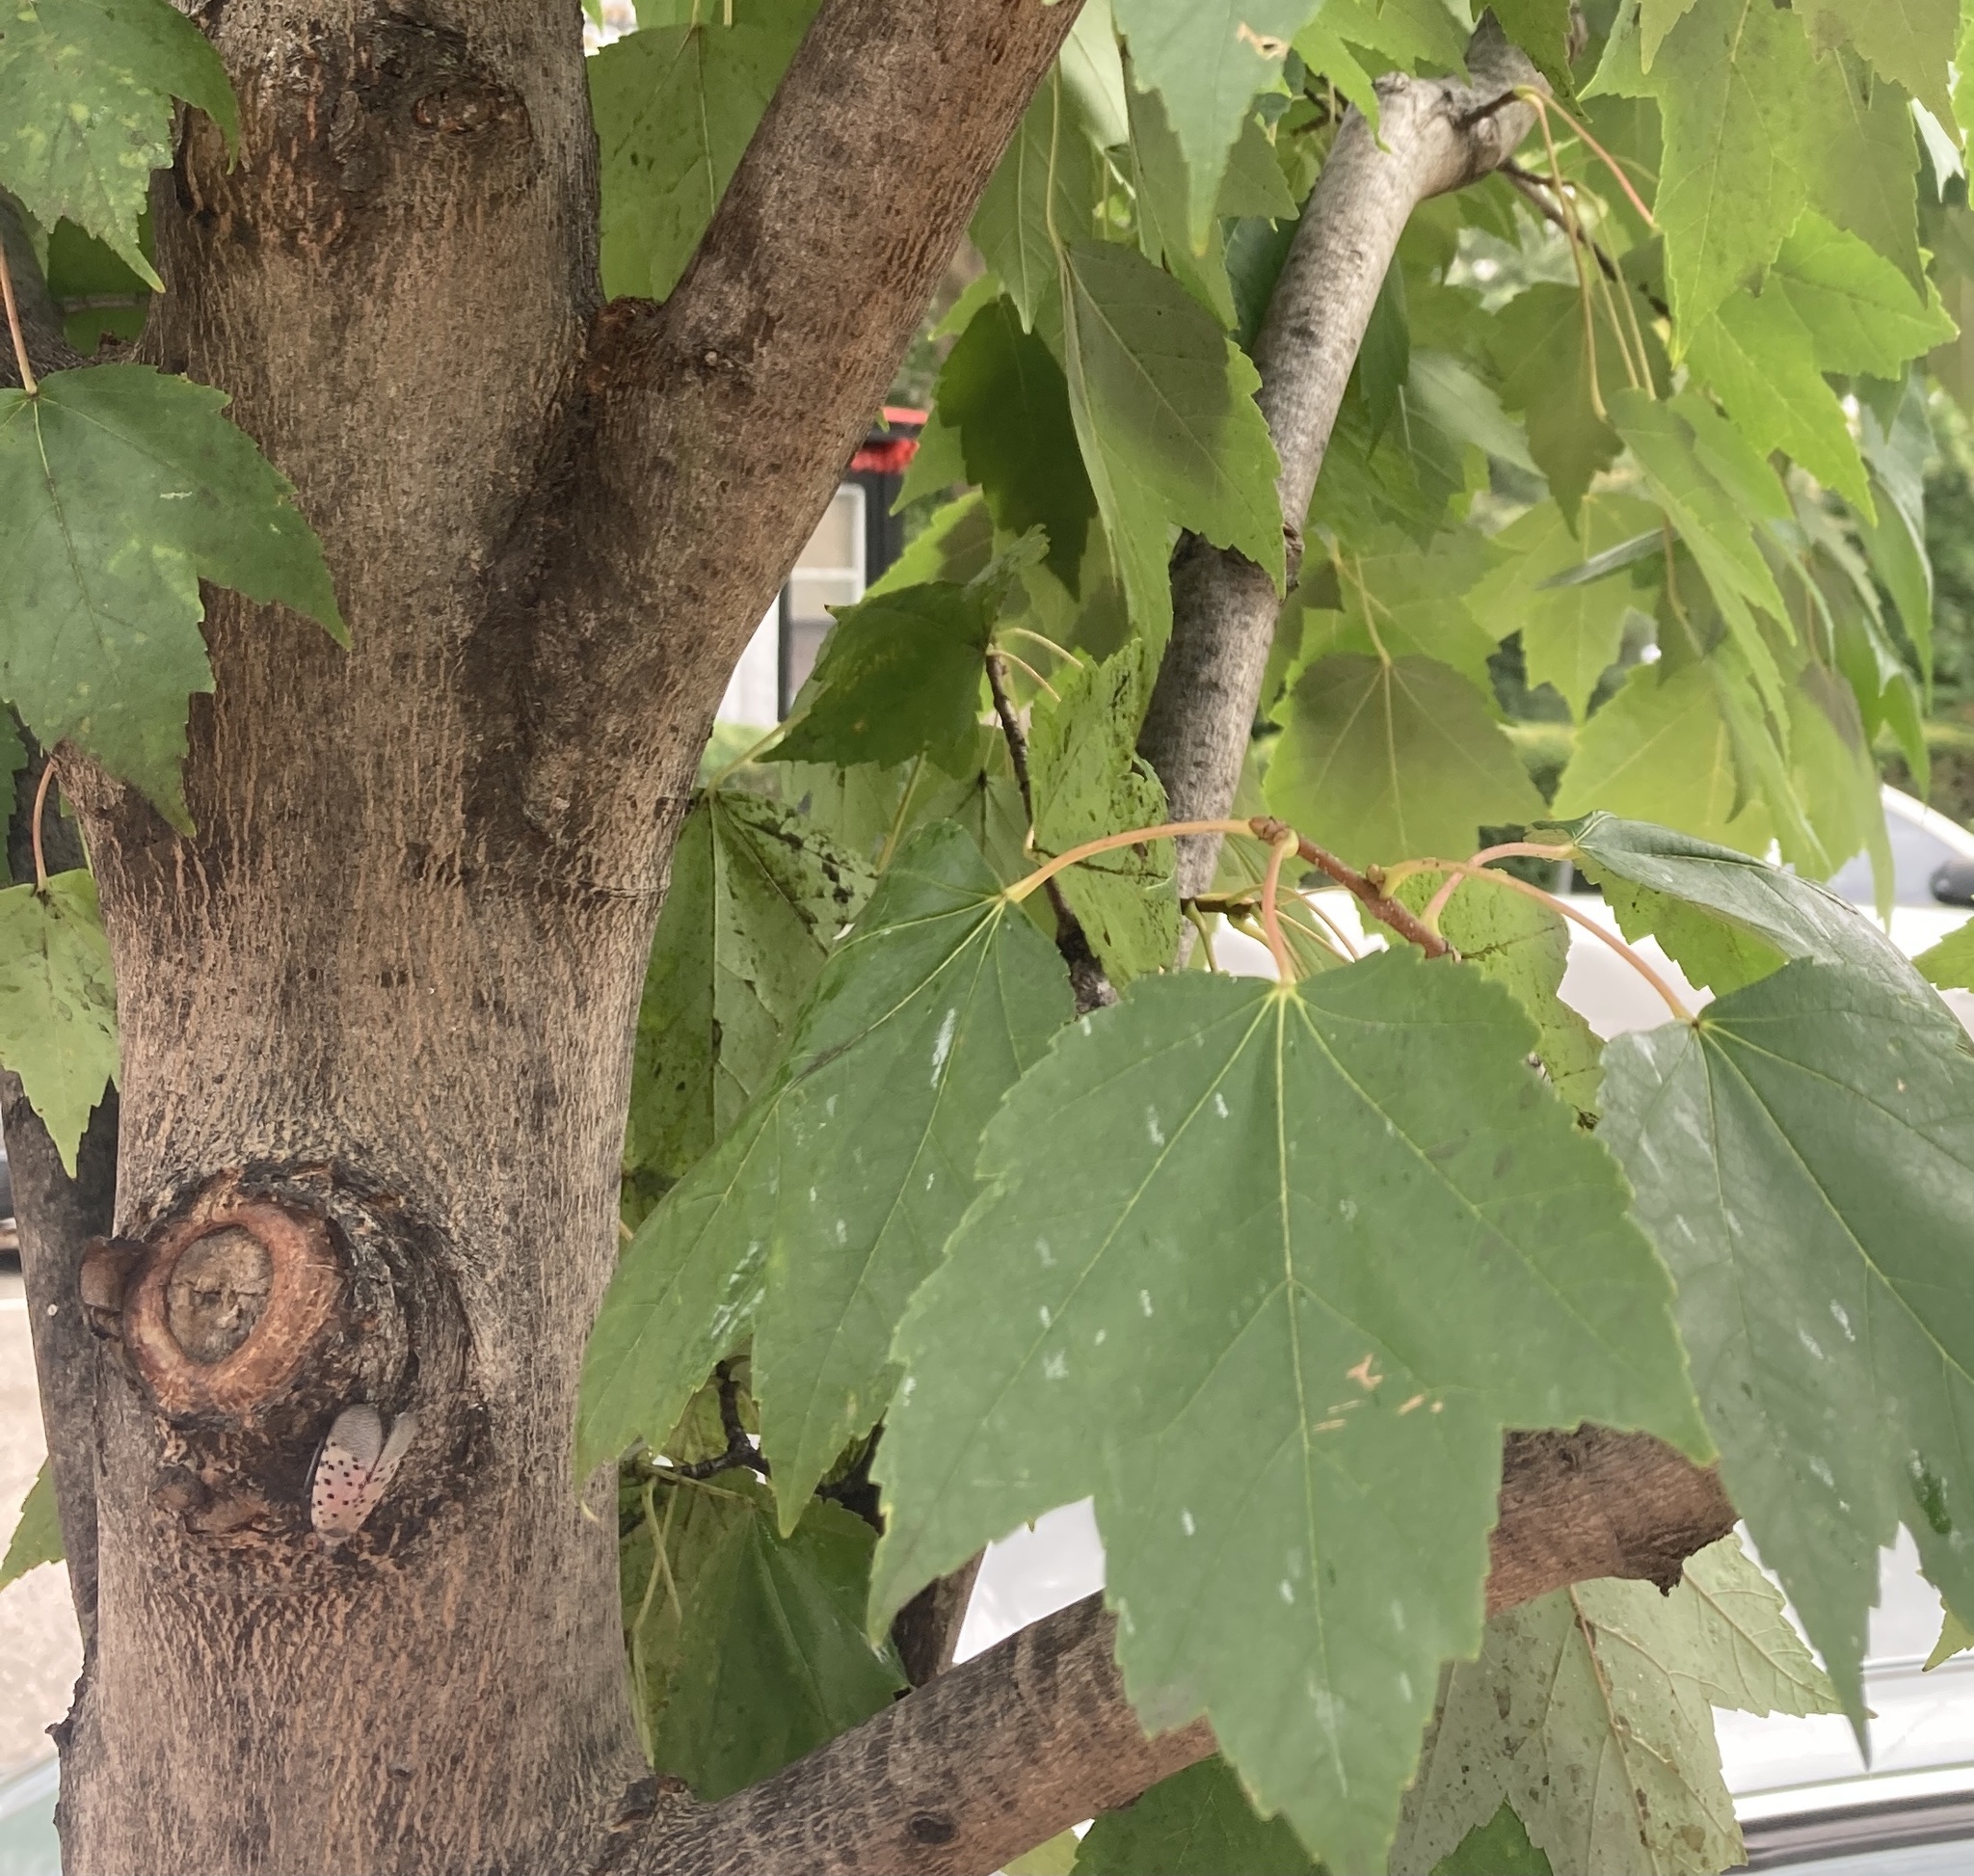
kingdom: Animalia
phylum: Arthropoda
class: Insecta
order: Hemiptera
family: Fulgoridae
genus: Lycorma
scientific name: Lycorma delicatula
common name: Spotted lanternfly
